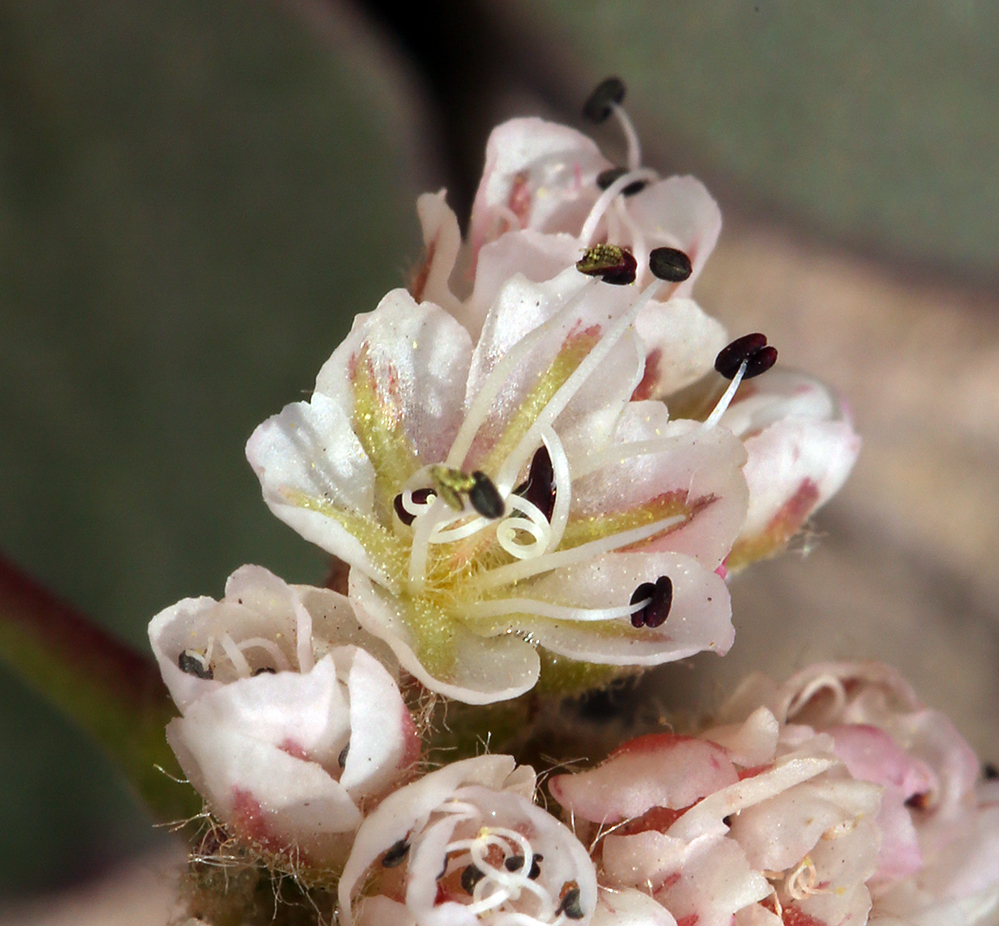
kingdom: Plantae
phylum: Tracheophyta
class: Magnoliopsida
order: Caryophyllales
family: Polygonaceae
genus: Eriogonum
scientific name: Eriogonum pyrolifolium
